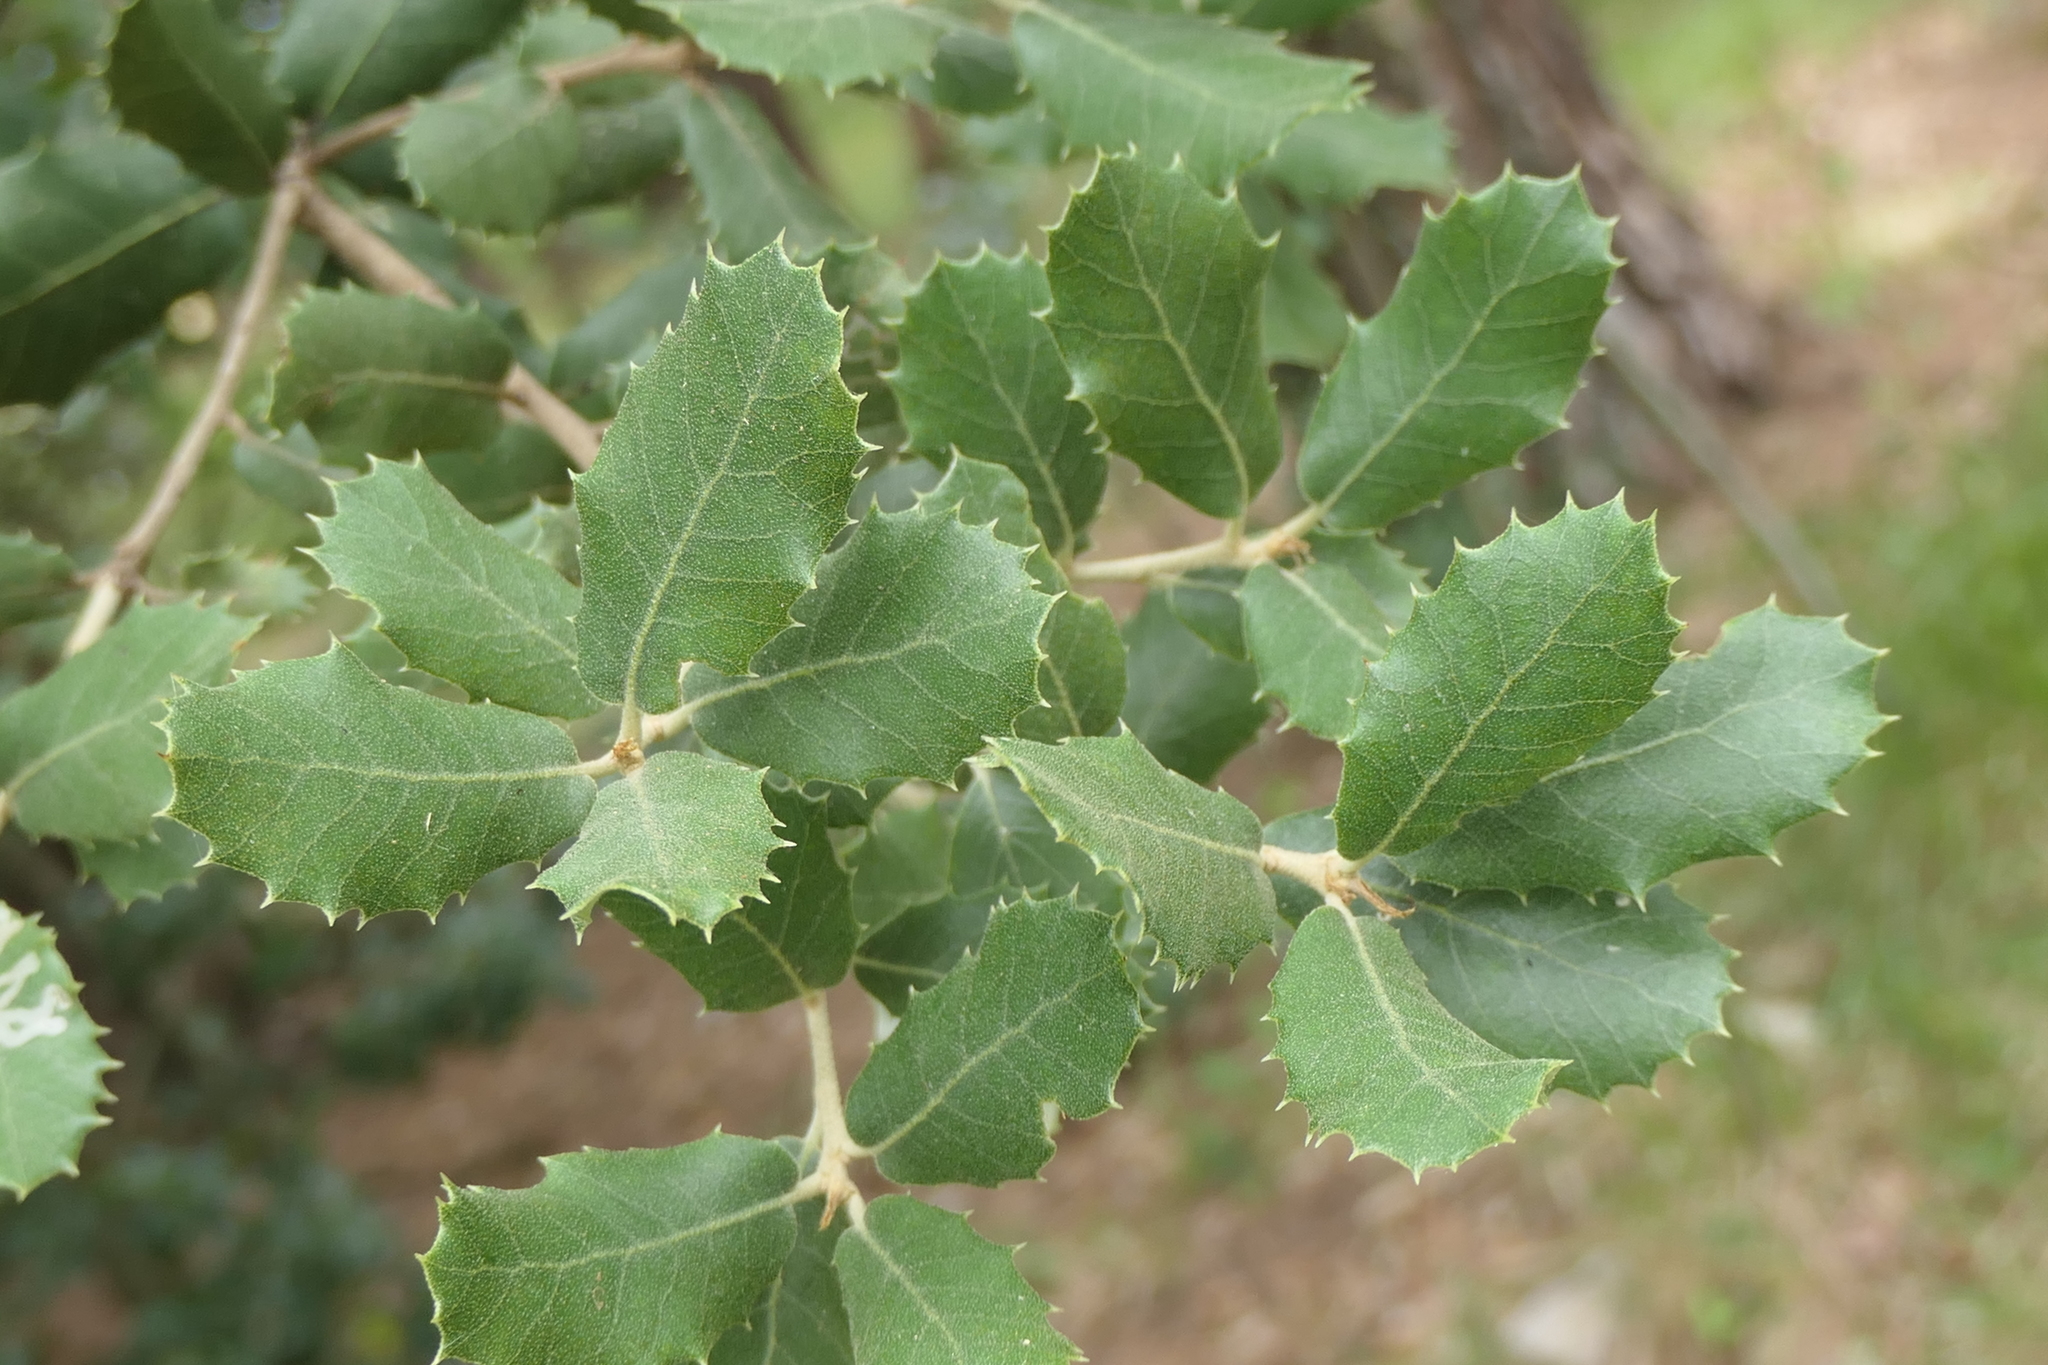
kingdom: Plantae
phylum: Tracheophyta
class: Magnoliopsida
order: Fagales
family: Fagaceae
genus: Quercus
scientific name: Quercus rotundifolia
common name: Holm oak
